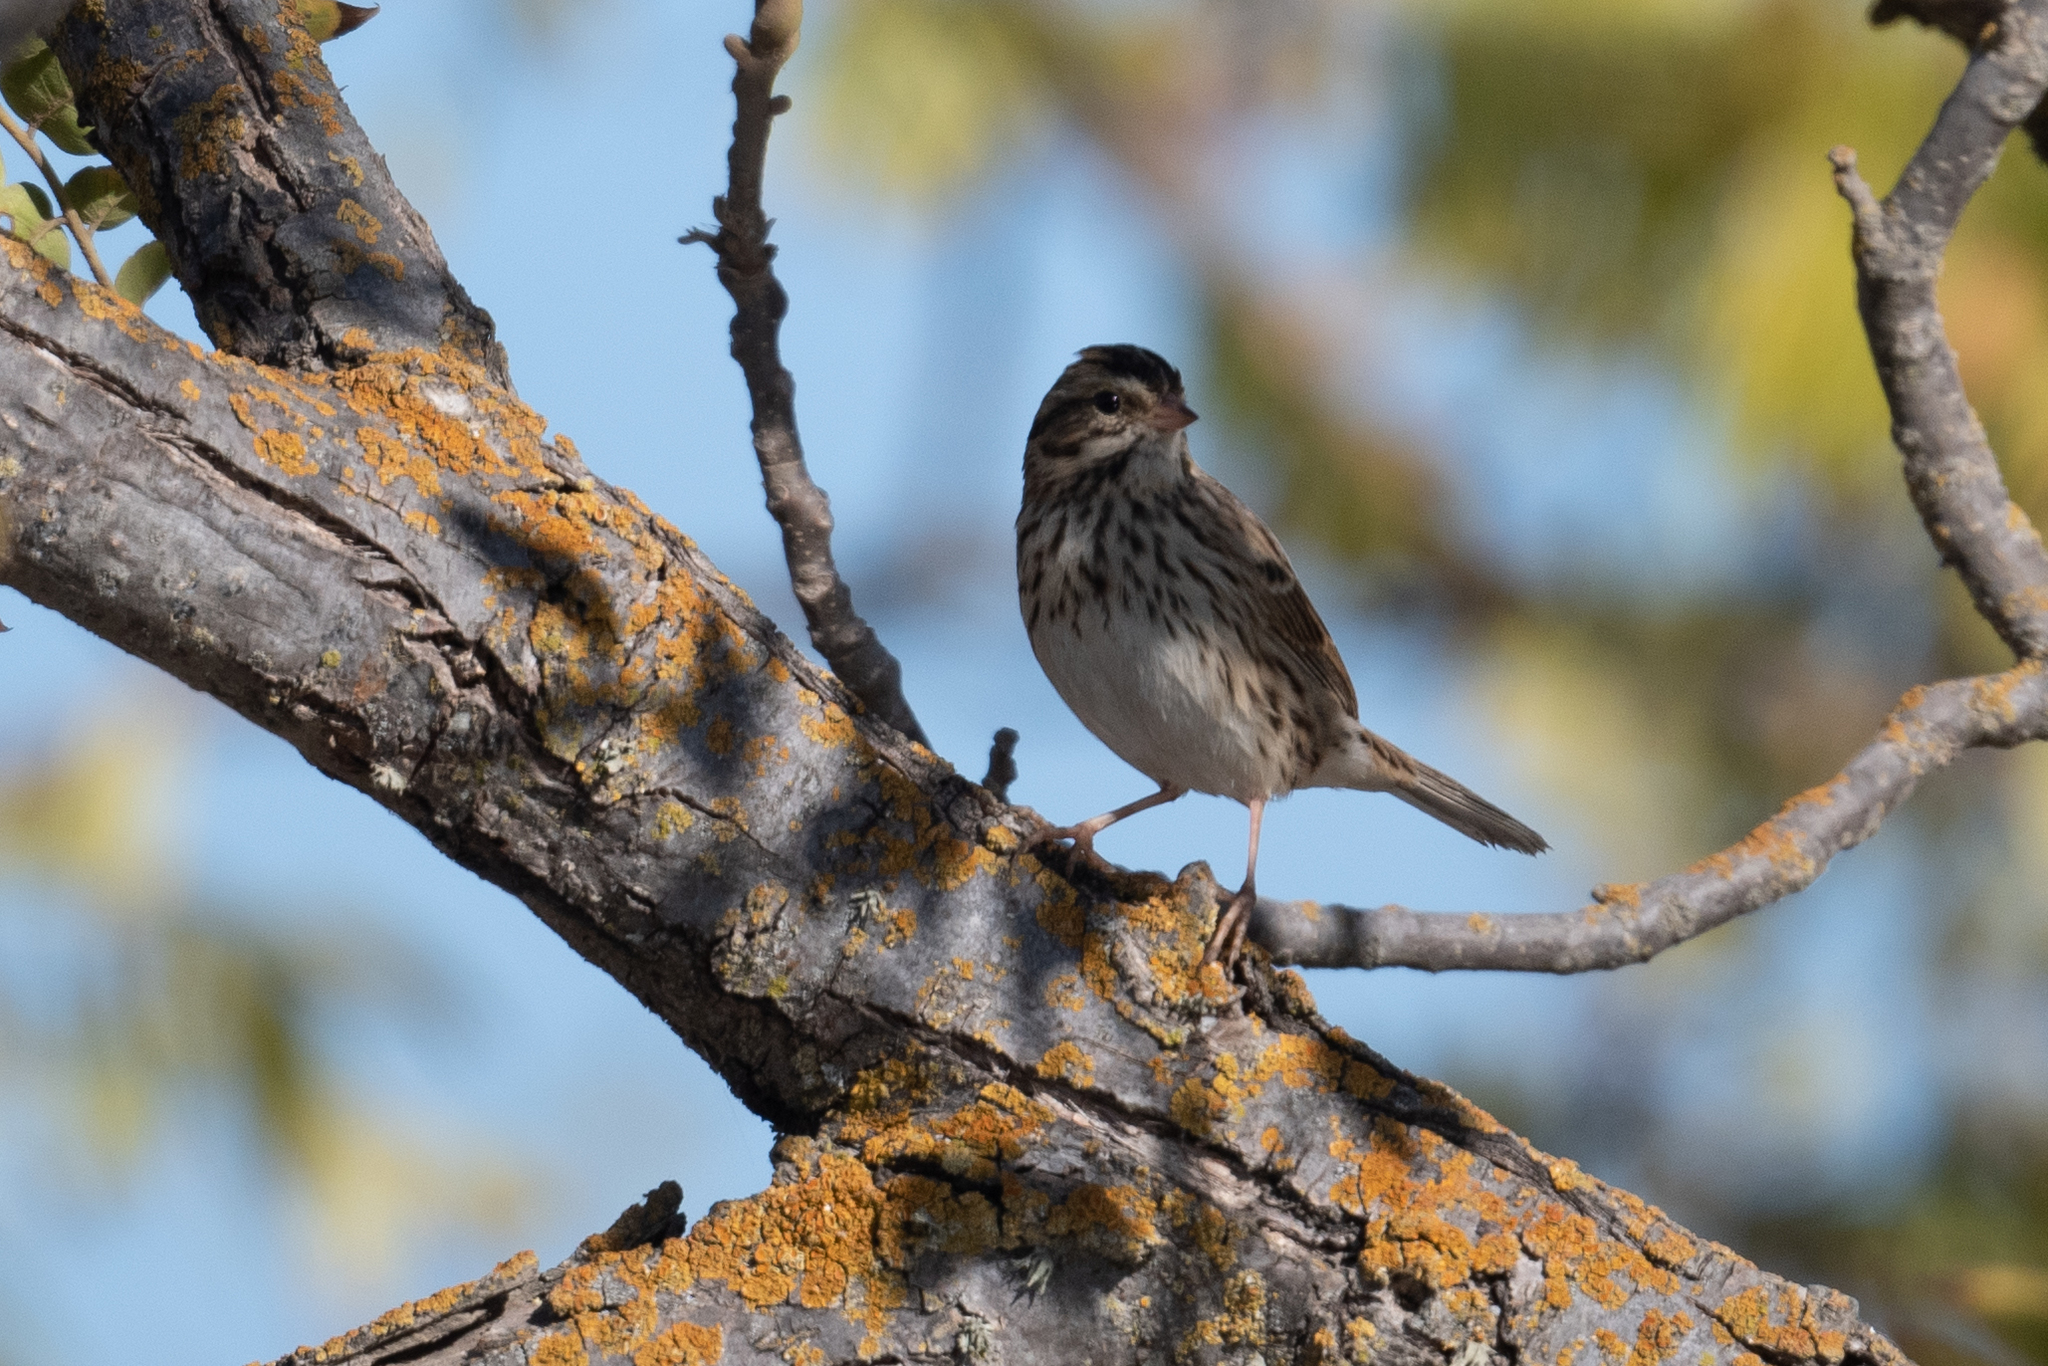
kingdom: Animalia
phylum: Chordata
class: Aves
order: Passeriformes
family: Passerellidae
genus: Passerculus
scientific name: Passerculus sandwichensis
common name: Savannah sparrow
